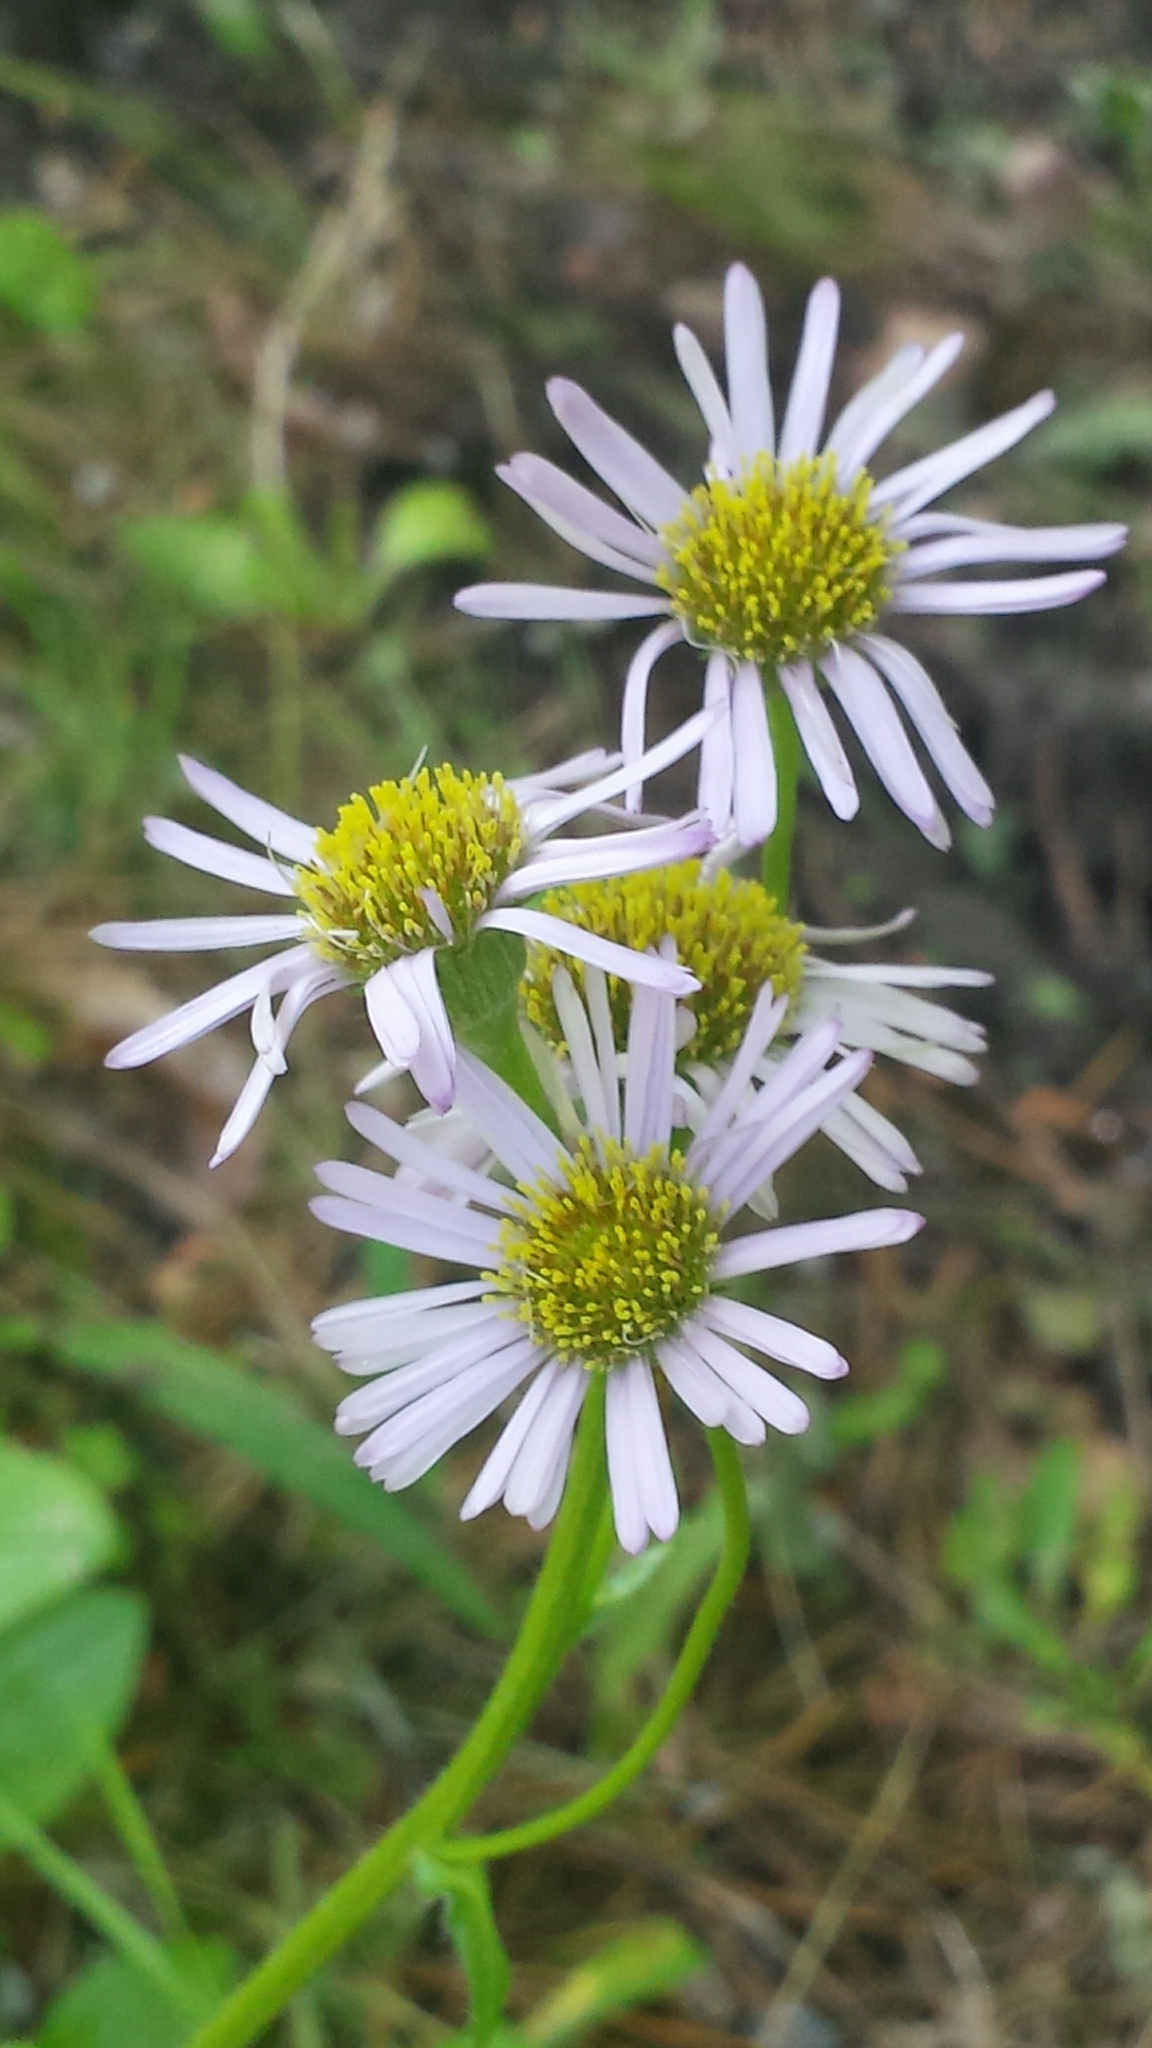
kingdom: Plantae
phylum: Tracheophyta
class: Magnoliopsida
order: Asterales
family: Asteraceae
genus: Erigeron
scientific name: Erigeron pulchellus
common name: Hairy fleabane
